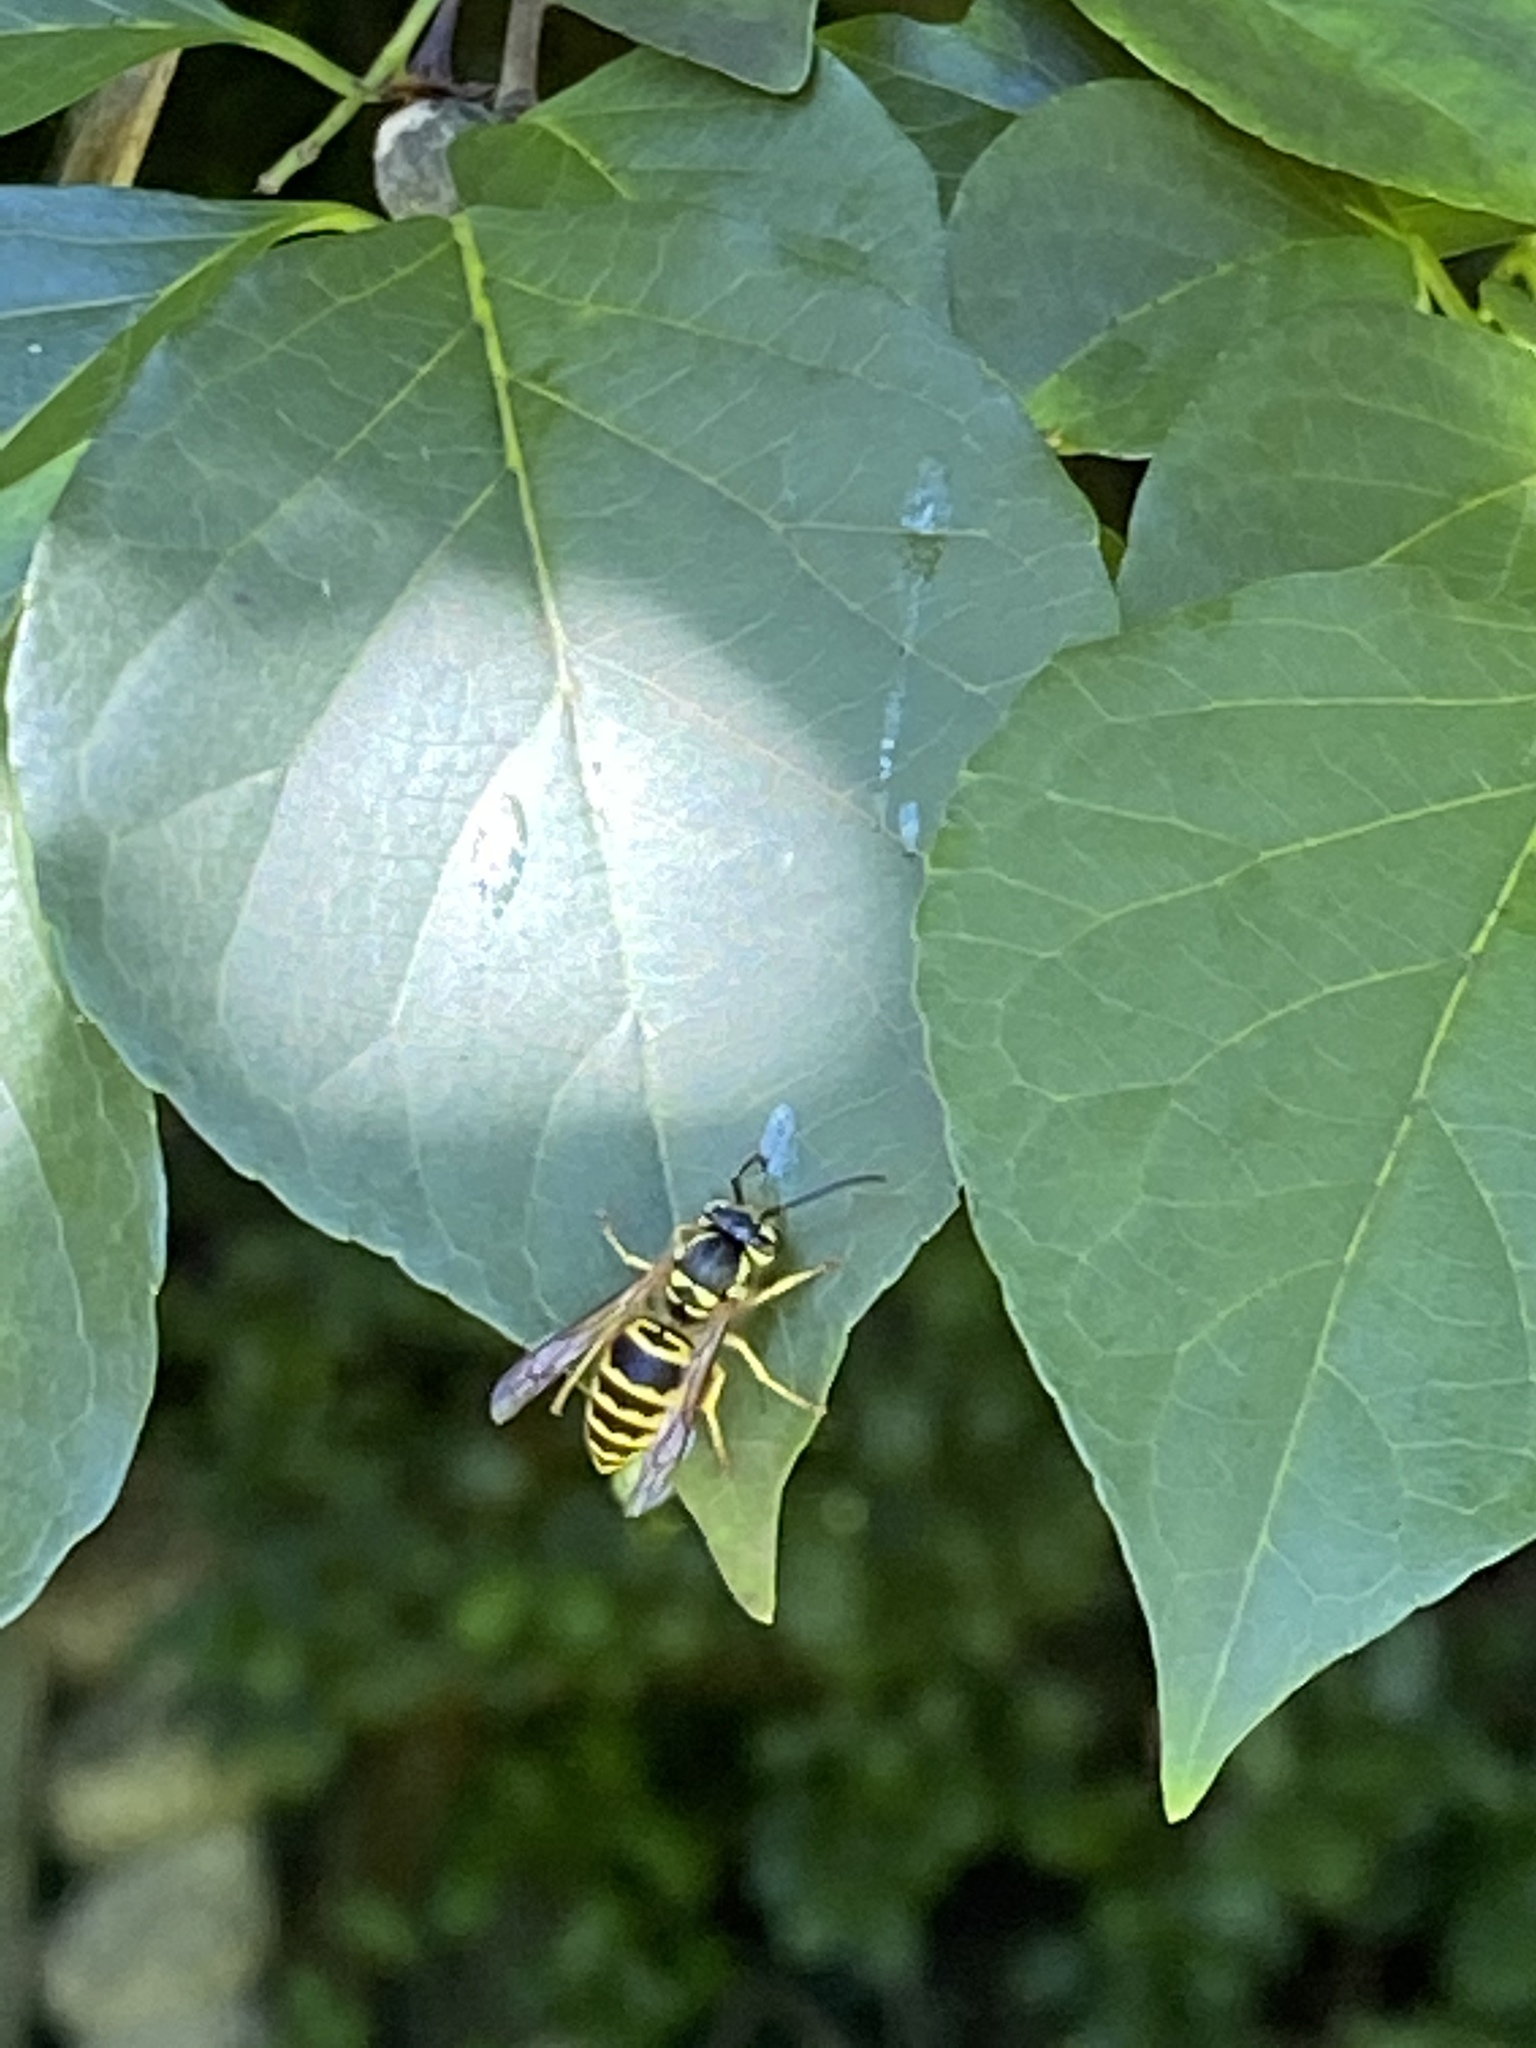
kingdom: Animalia
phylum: Arthropoda
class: Insecta
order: Hymenoptera
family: Vespidae
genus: Vespula
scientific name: Vespula maculifrons
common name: Eastern yellowjacket
